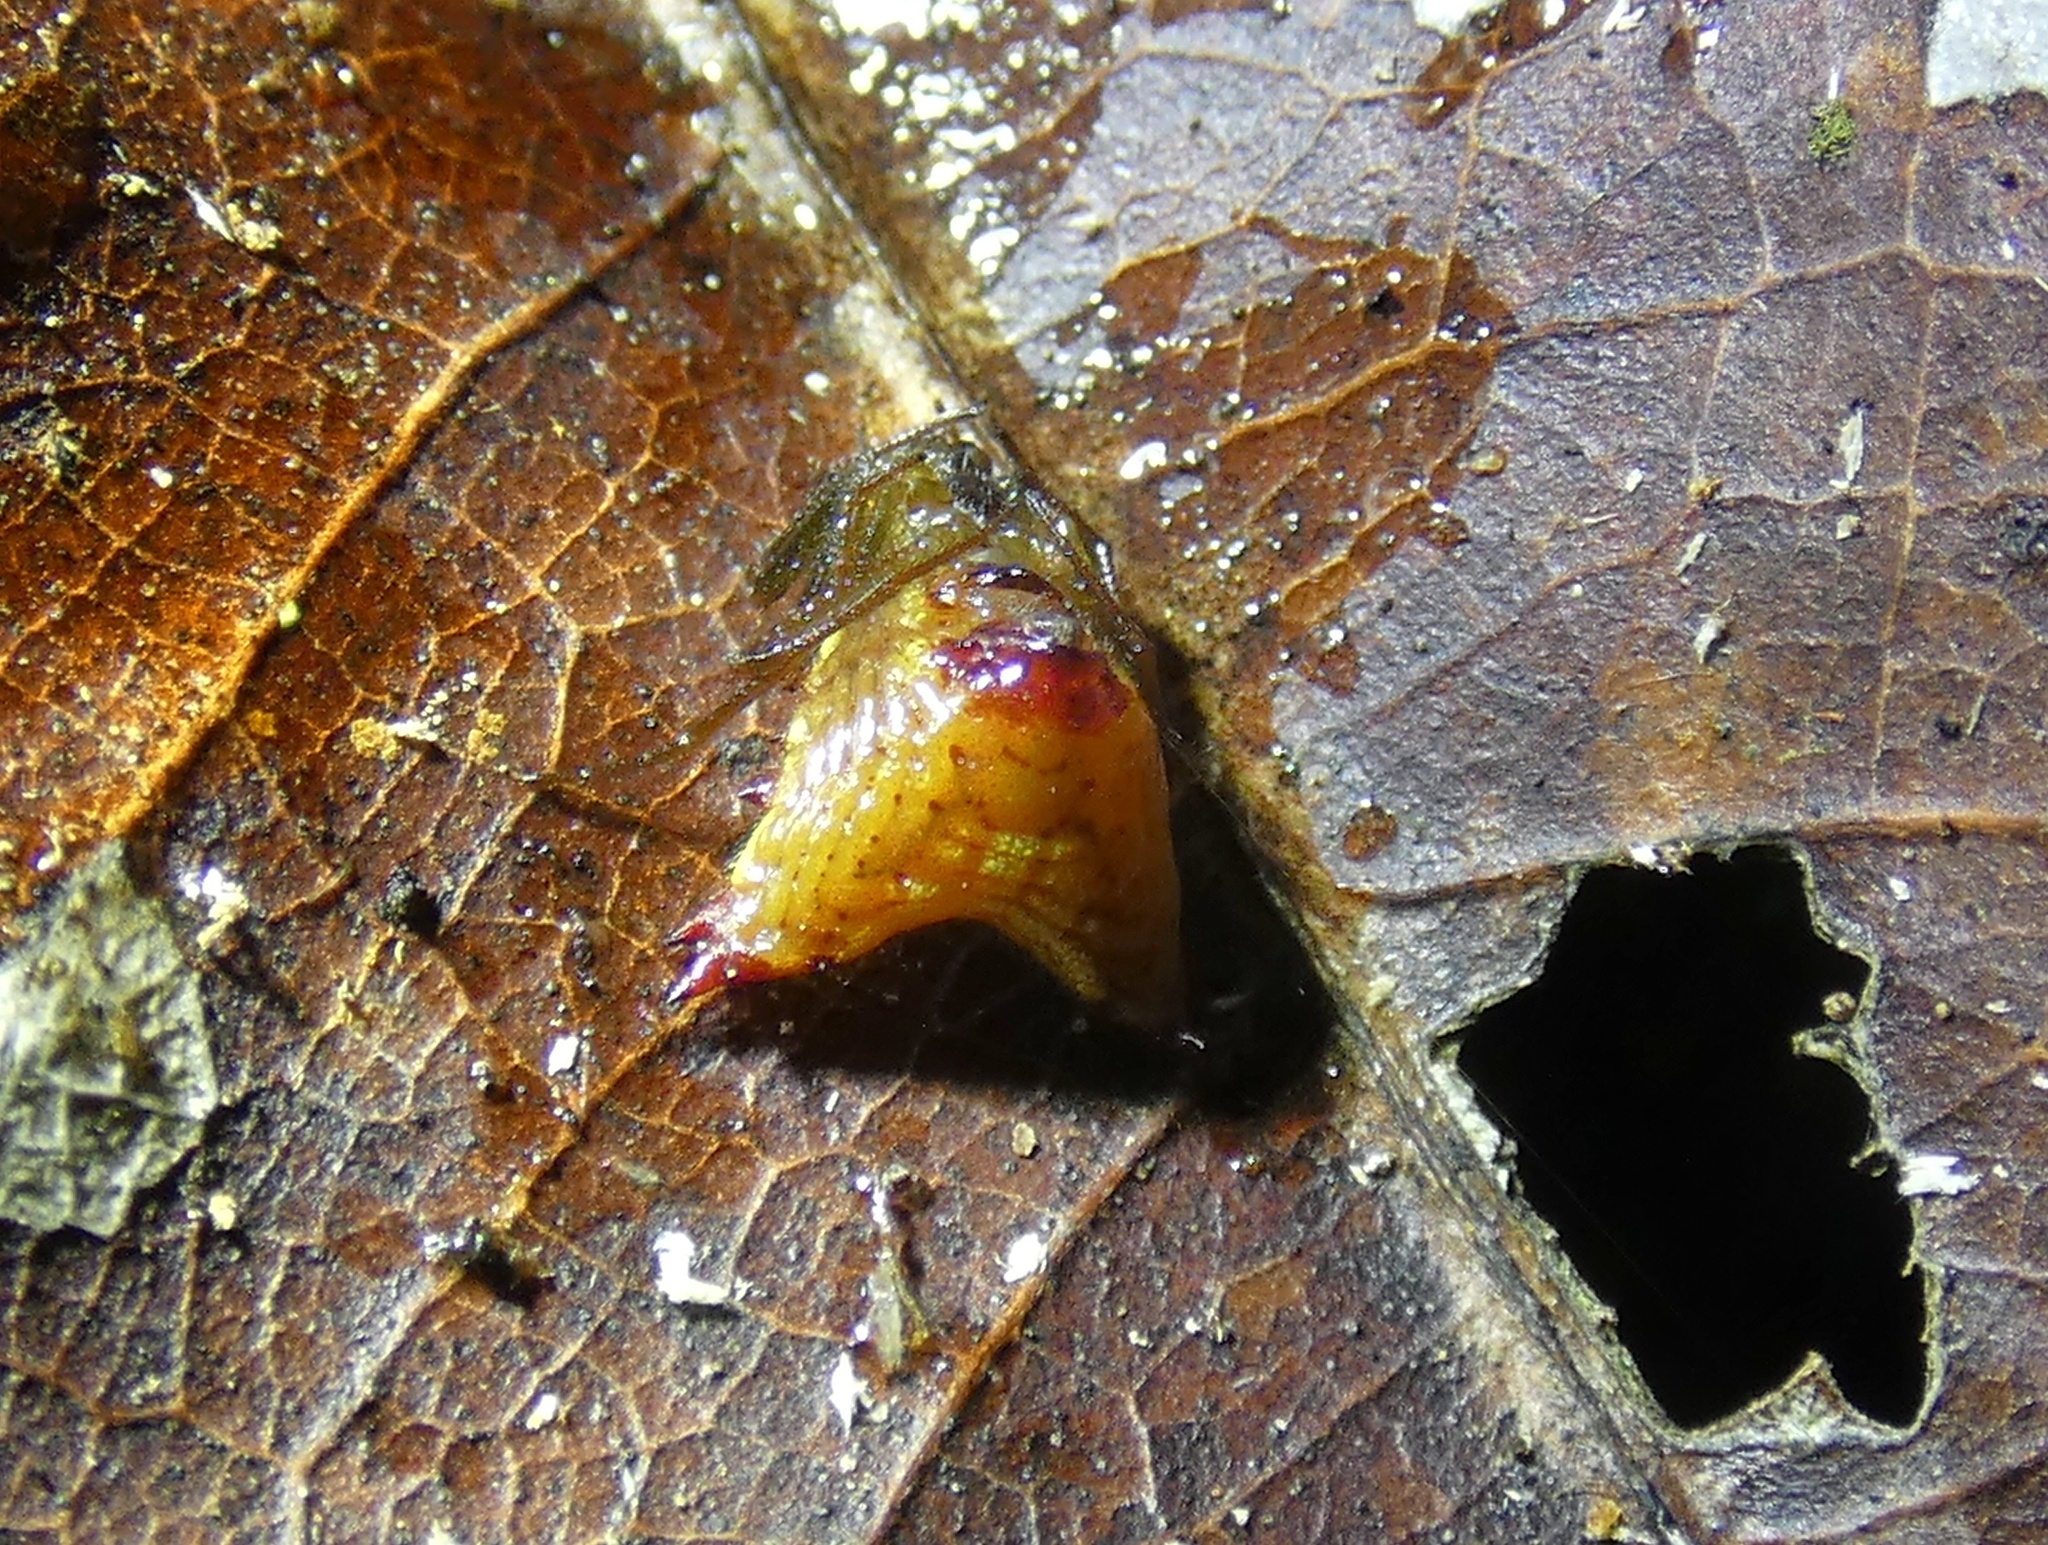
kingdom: Animalia
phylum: Arthropoda
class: Arachnida
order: Araneae
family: Araneidae
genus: Micrathena
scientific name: Micrathena triangularis
